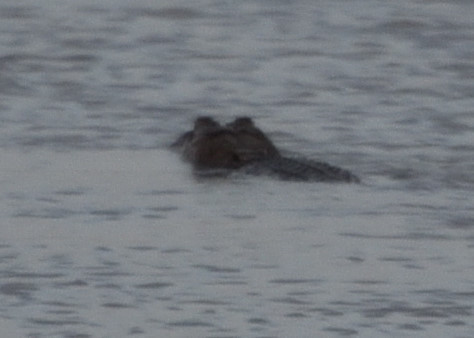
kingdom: Animalia
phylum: Chordata
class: Crocodylia
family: Alligatoridae
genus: Alligator
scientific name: Alligator mississippiensis
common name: American alligator
